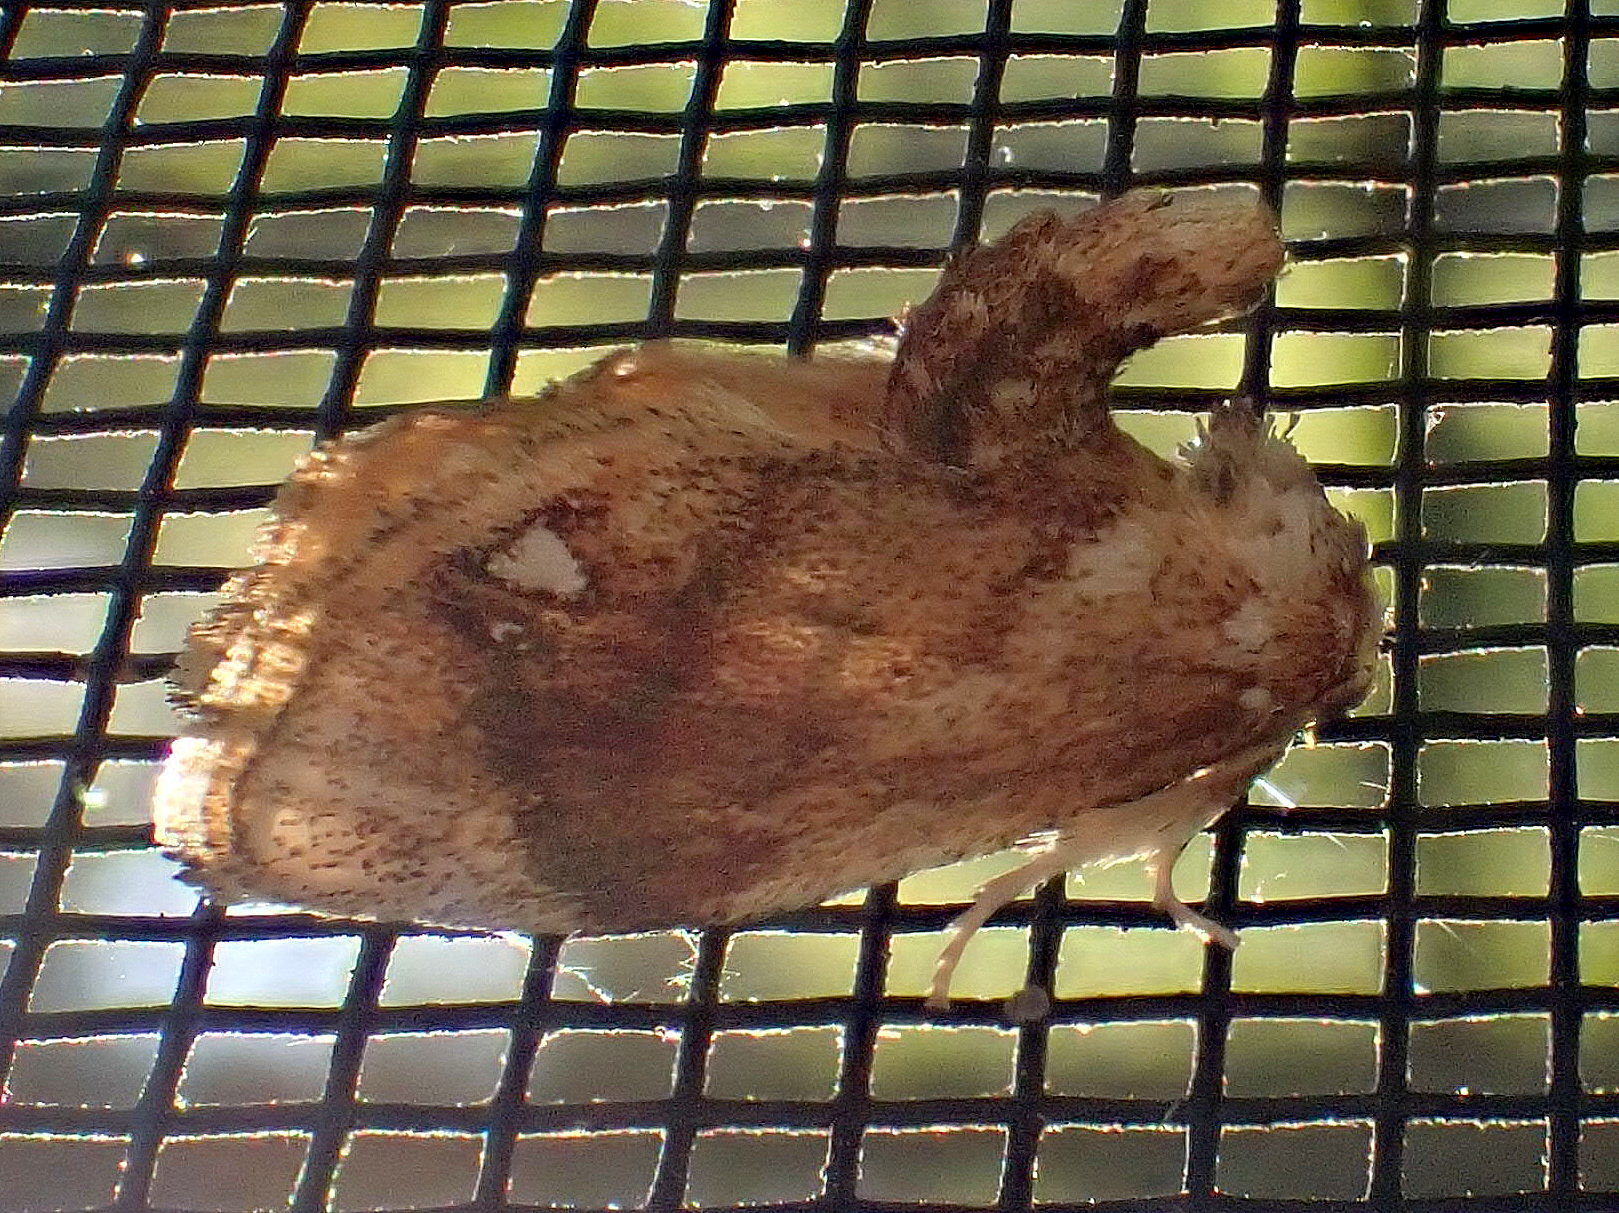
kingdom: Animalia
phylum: Arthropoda
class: Insecta
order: Lepidoptera
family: Limacodidae
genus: Packardia
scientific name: Packardia geminata
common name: Jeweled tailed slug moth
